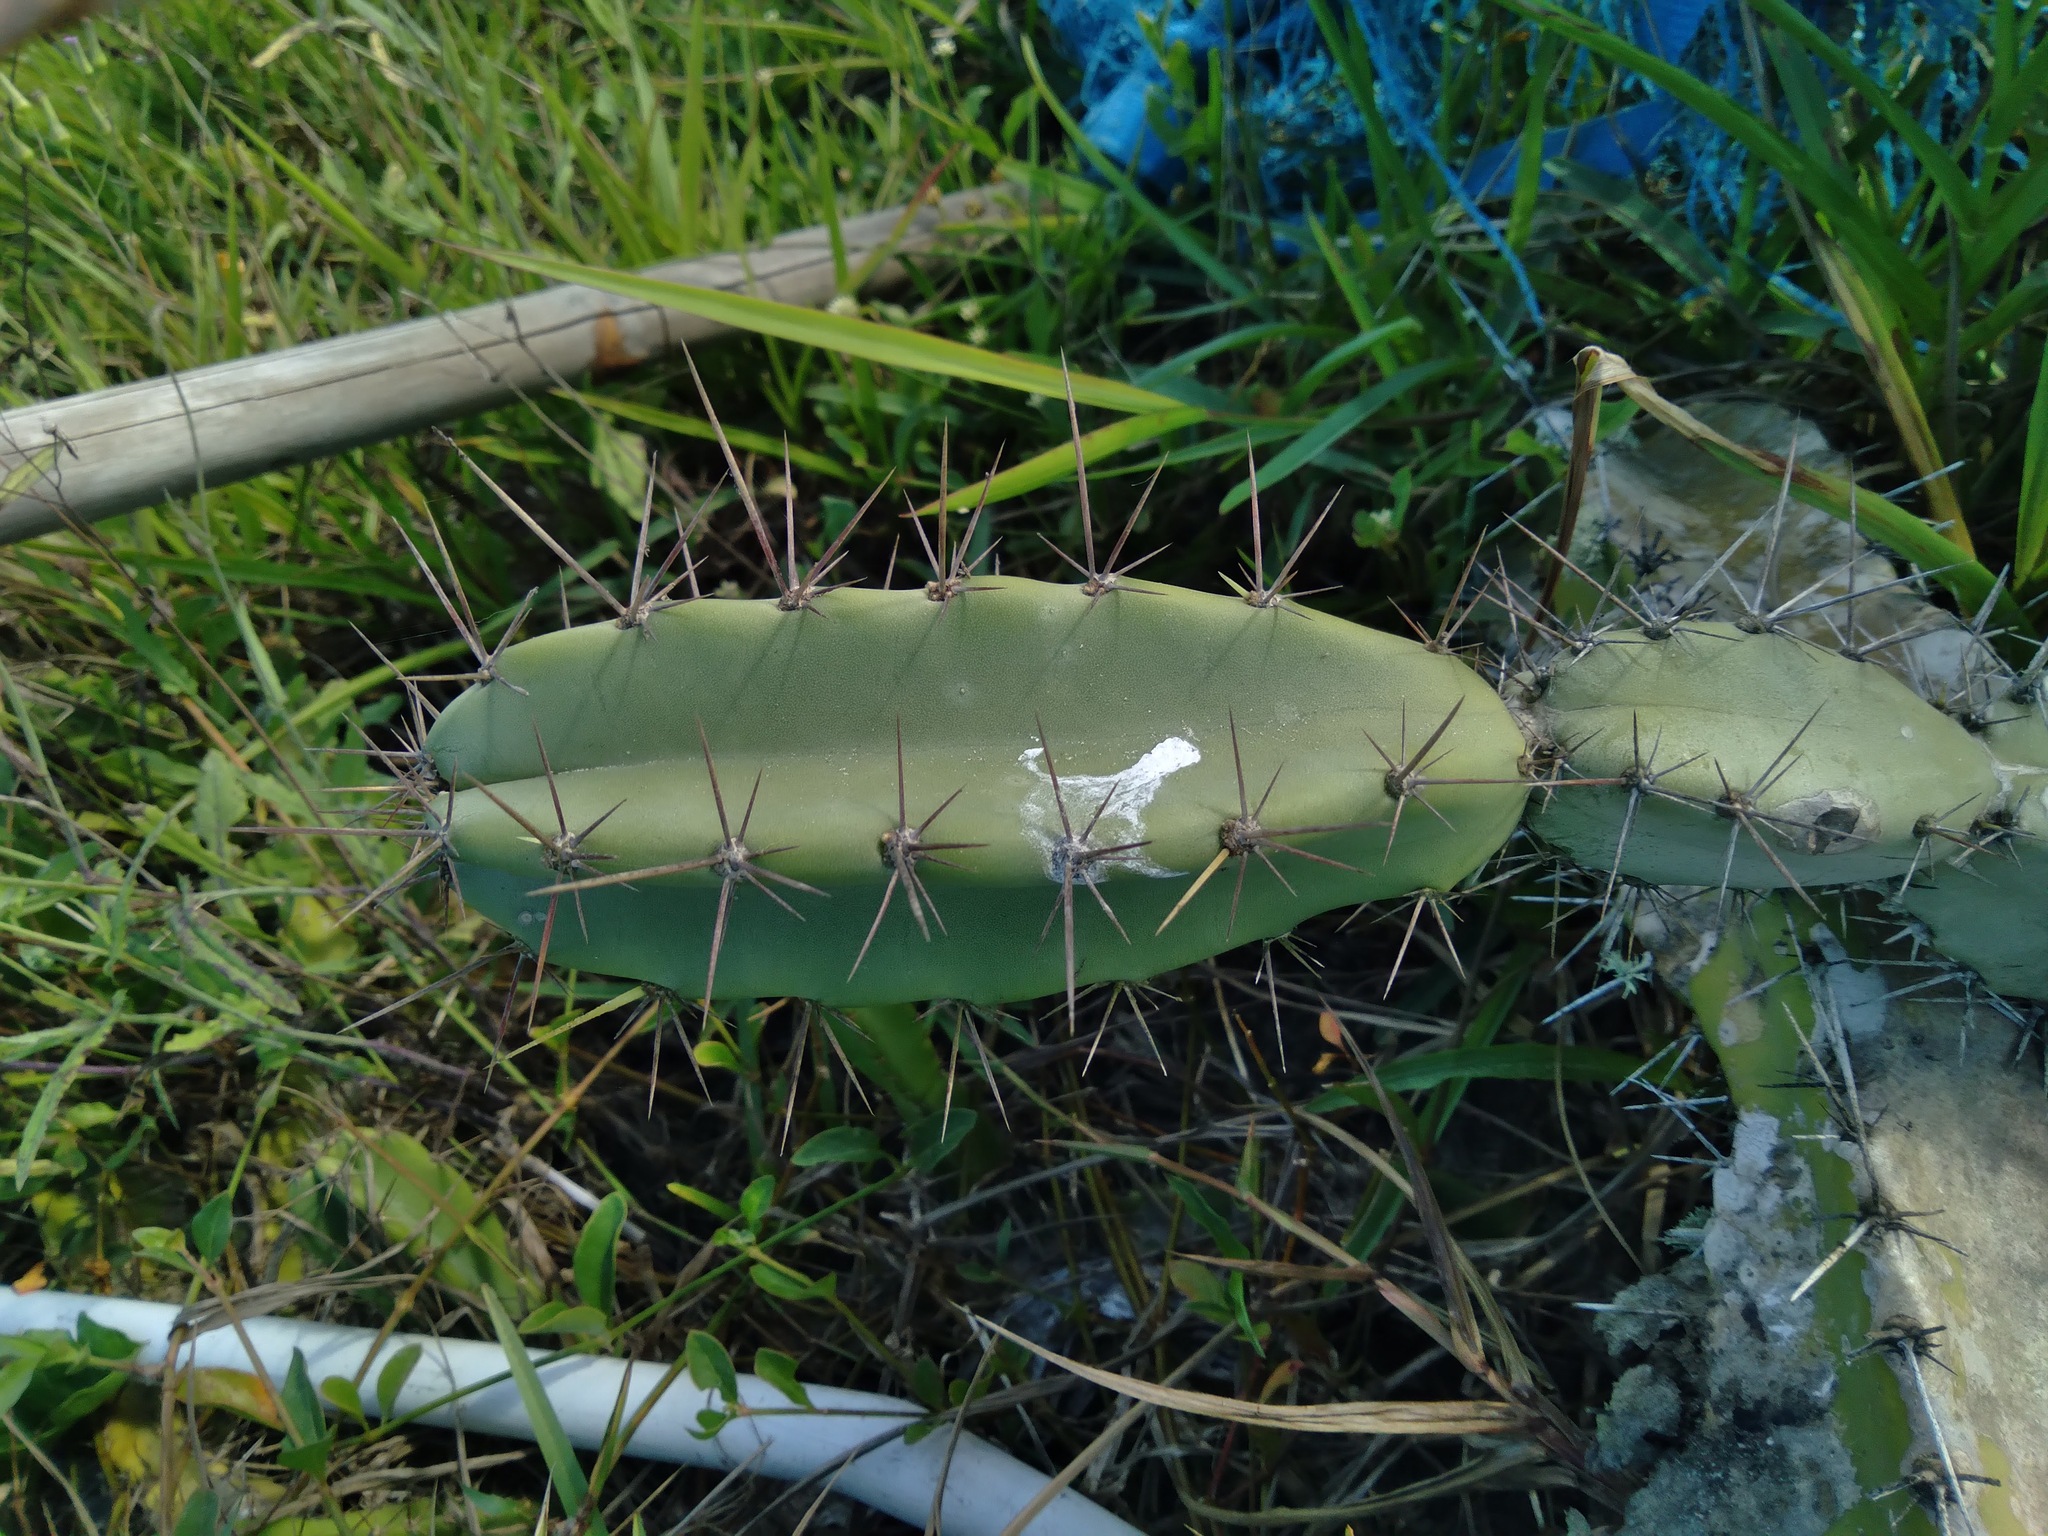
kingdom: Plantae
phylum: Tracheophyta
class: Magnoliopsida
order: Caryophyllales
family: Cactaceae
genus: Cereus
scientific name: Cereus fernambucensis
